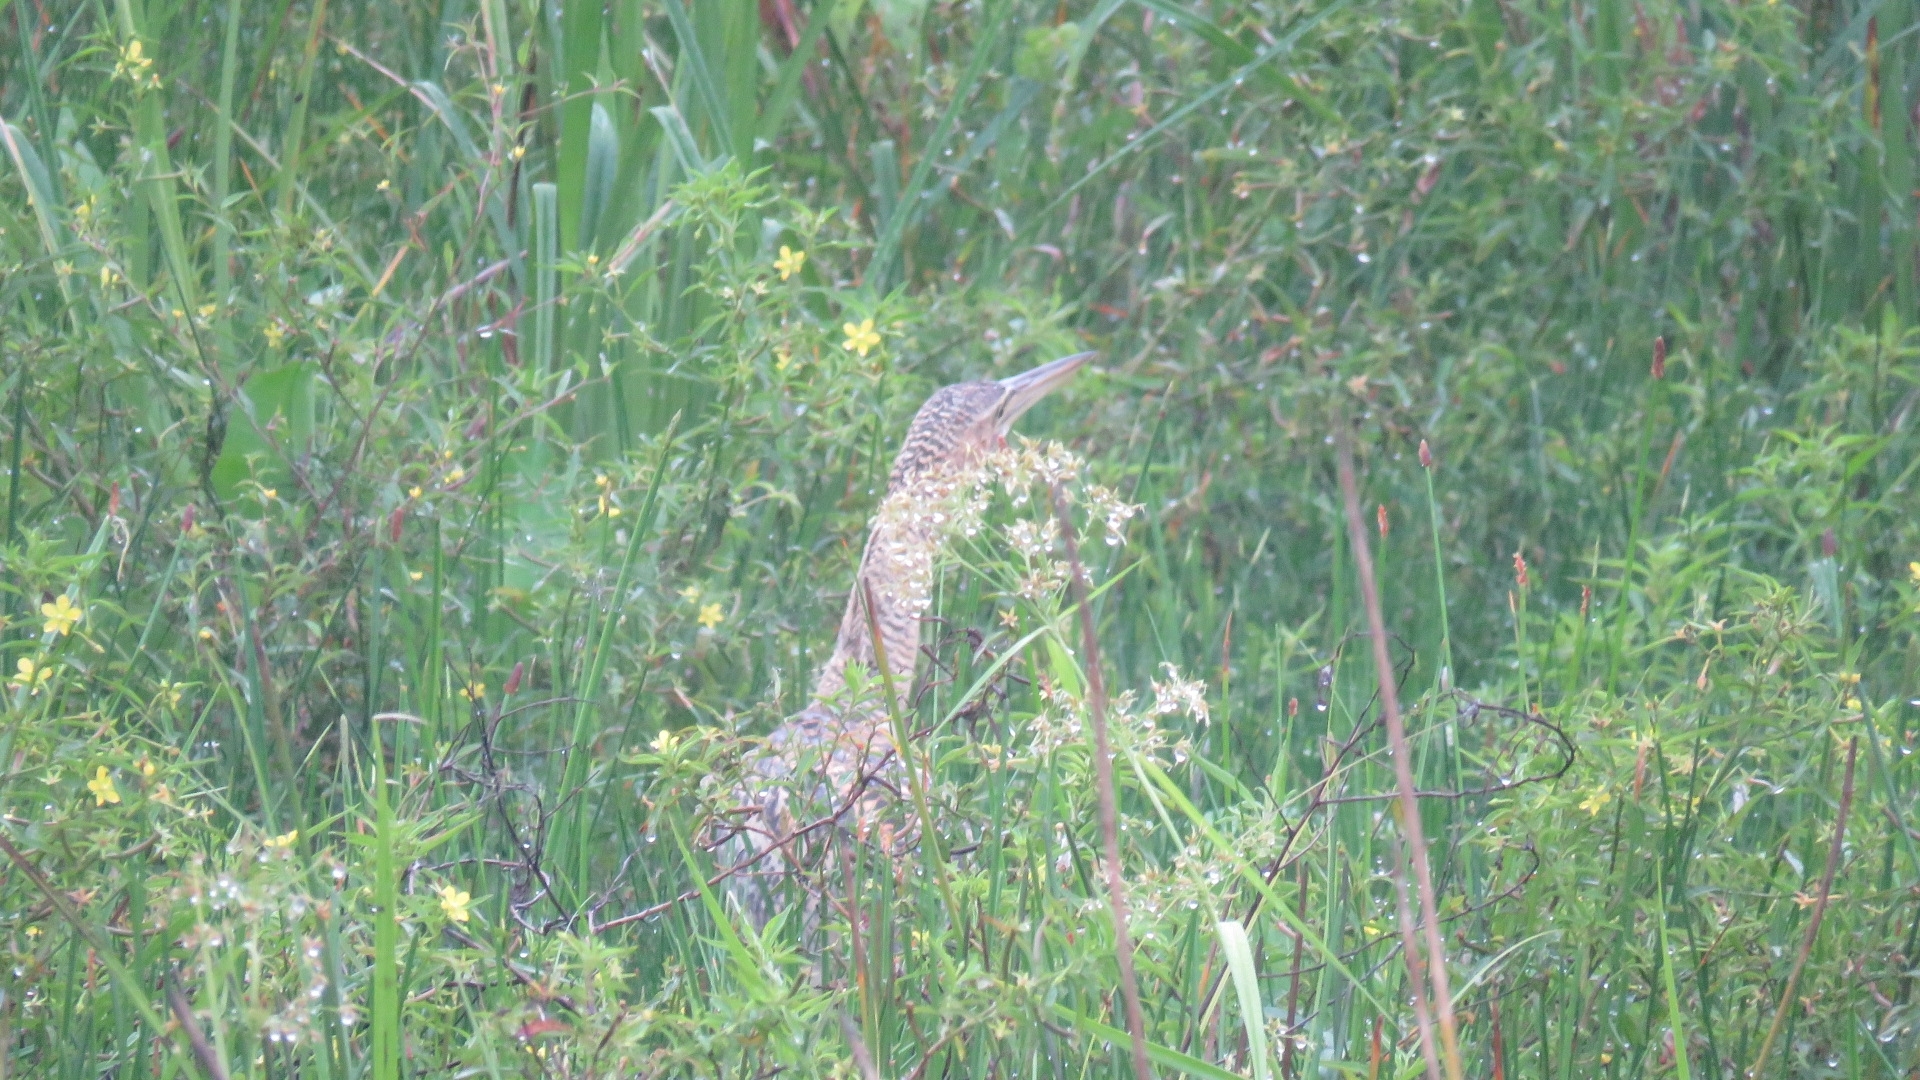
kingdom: Animalia
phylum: Chordata
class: Aves
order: Pelecaniformes
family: Ardeidae
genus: Botaurus
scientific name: Botaurus pinnatus
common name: Pinnated bittern
